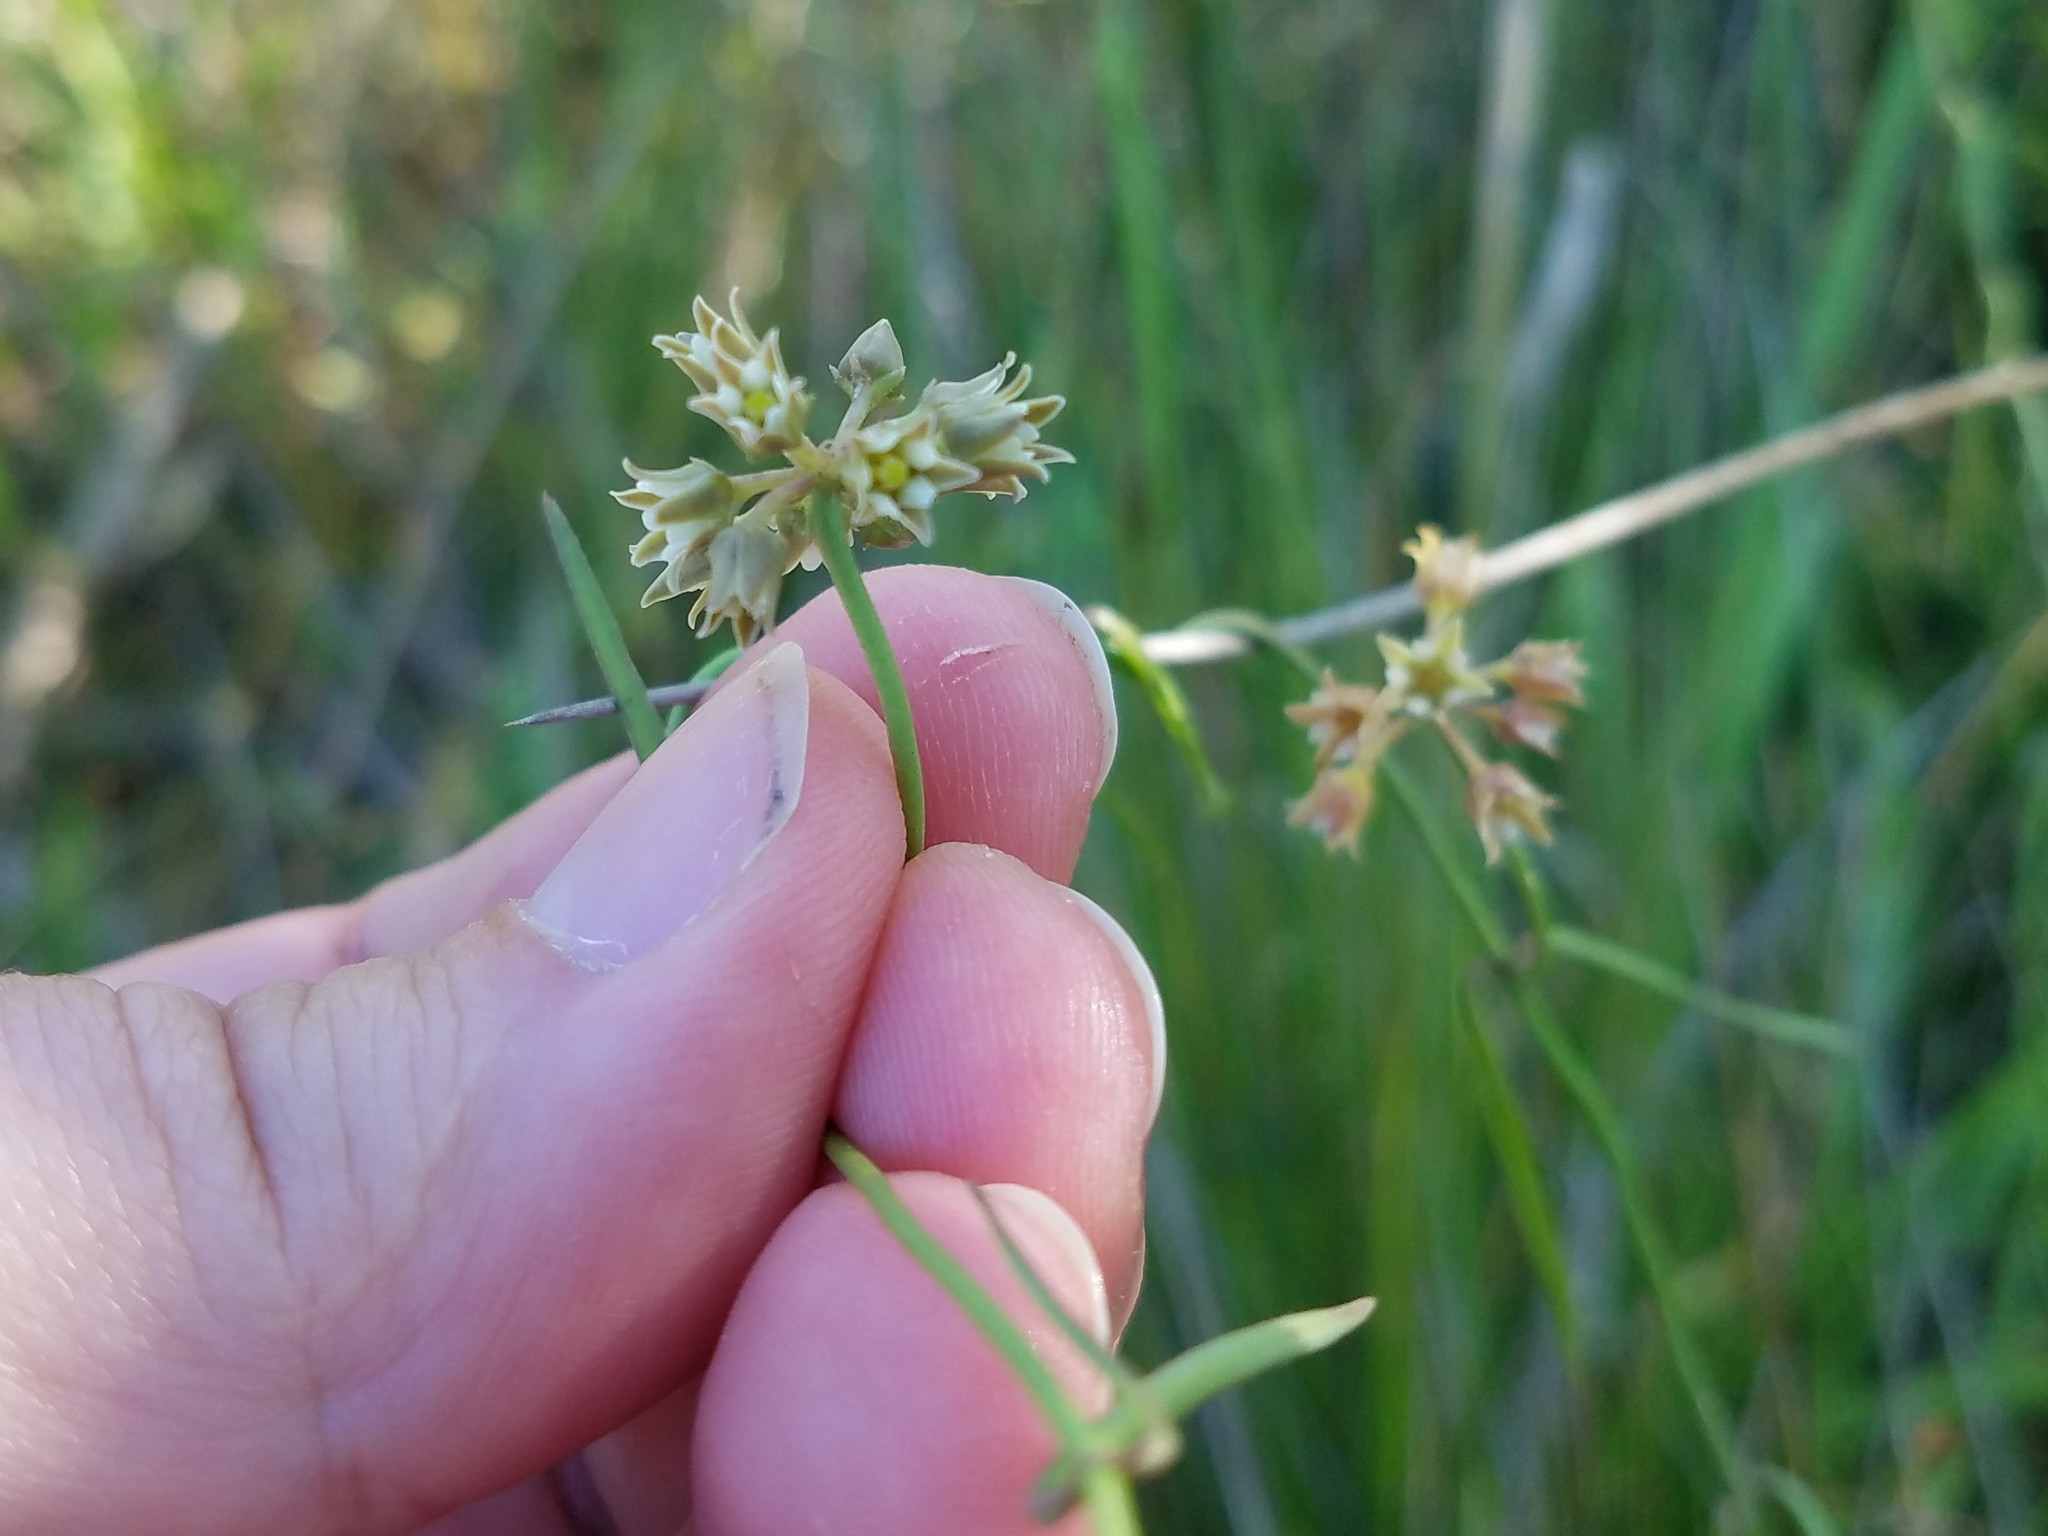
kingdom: Plantae
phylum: Tracheophyta
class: Magnoliopsida
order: Gentianales
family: Apocynaceae
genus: Pattalias
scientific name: Pattalias
